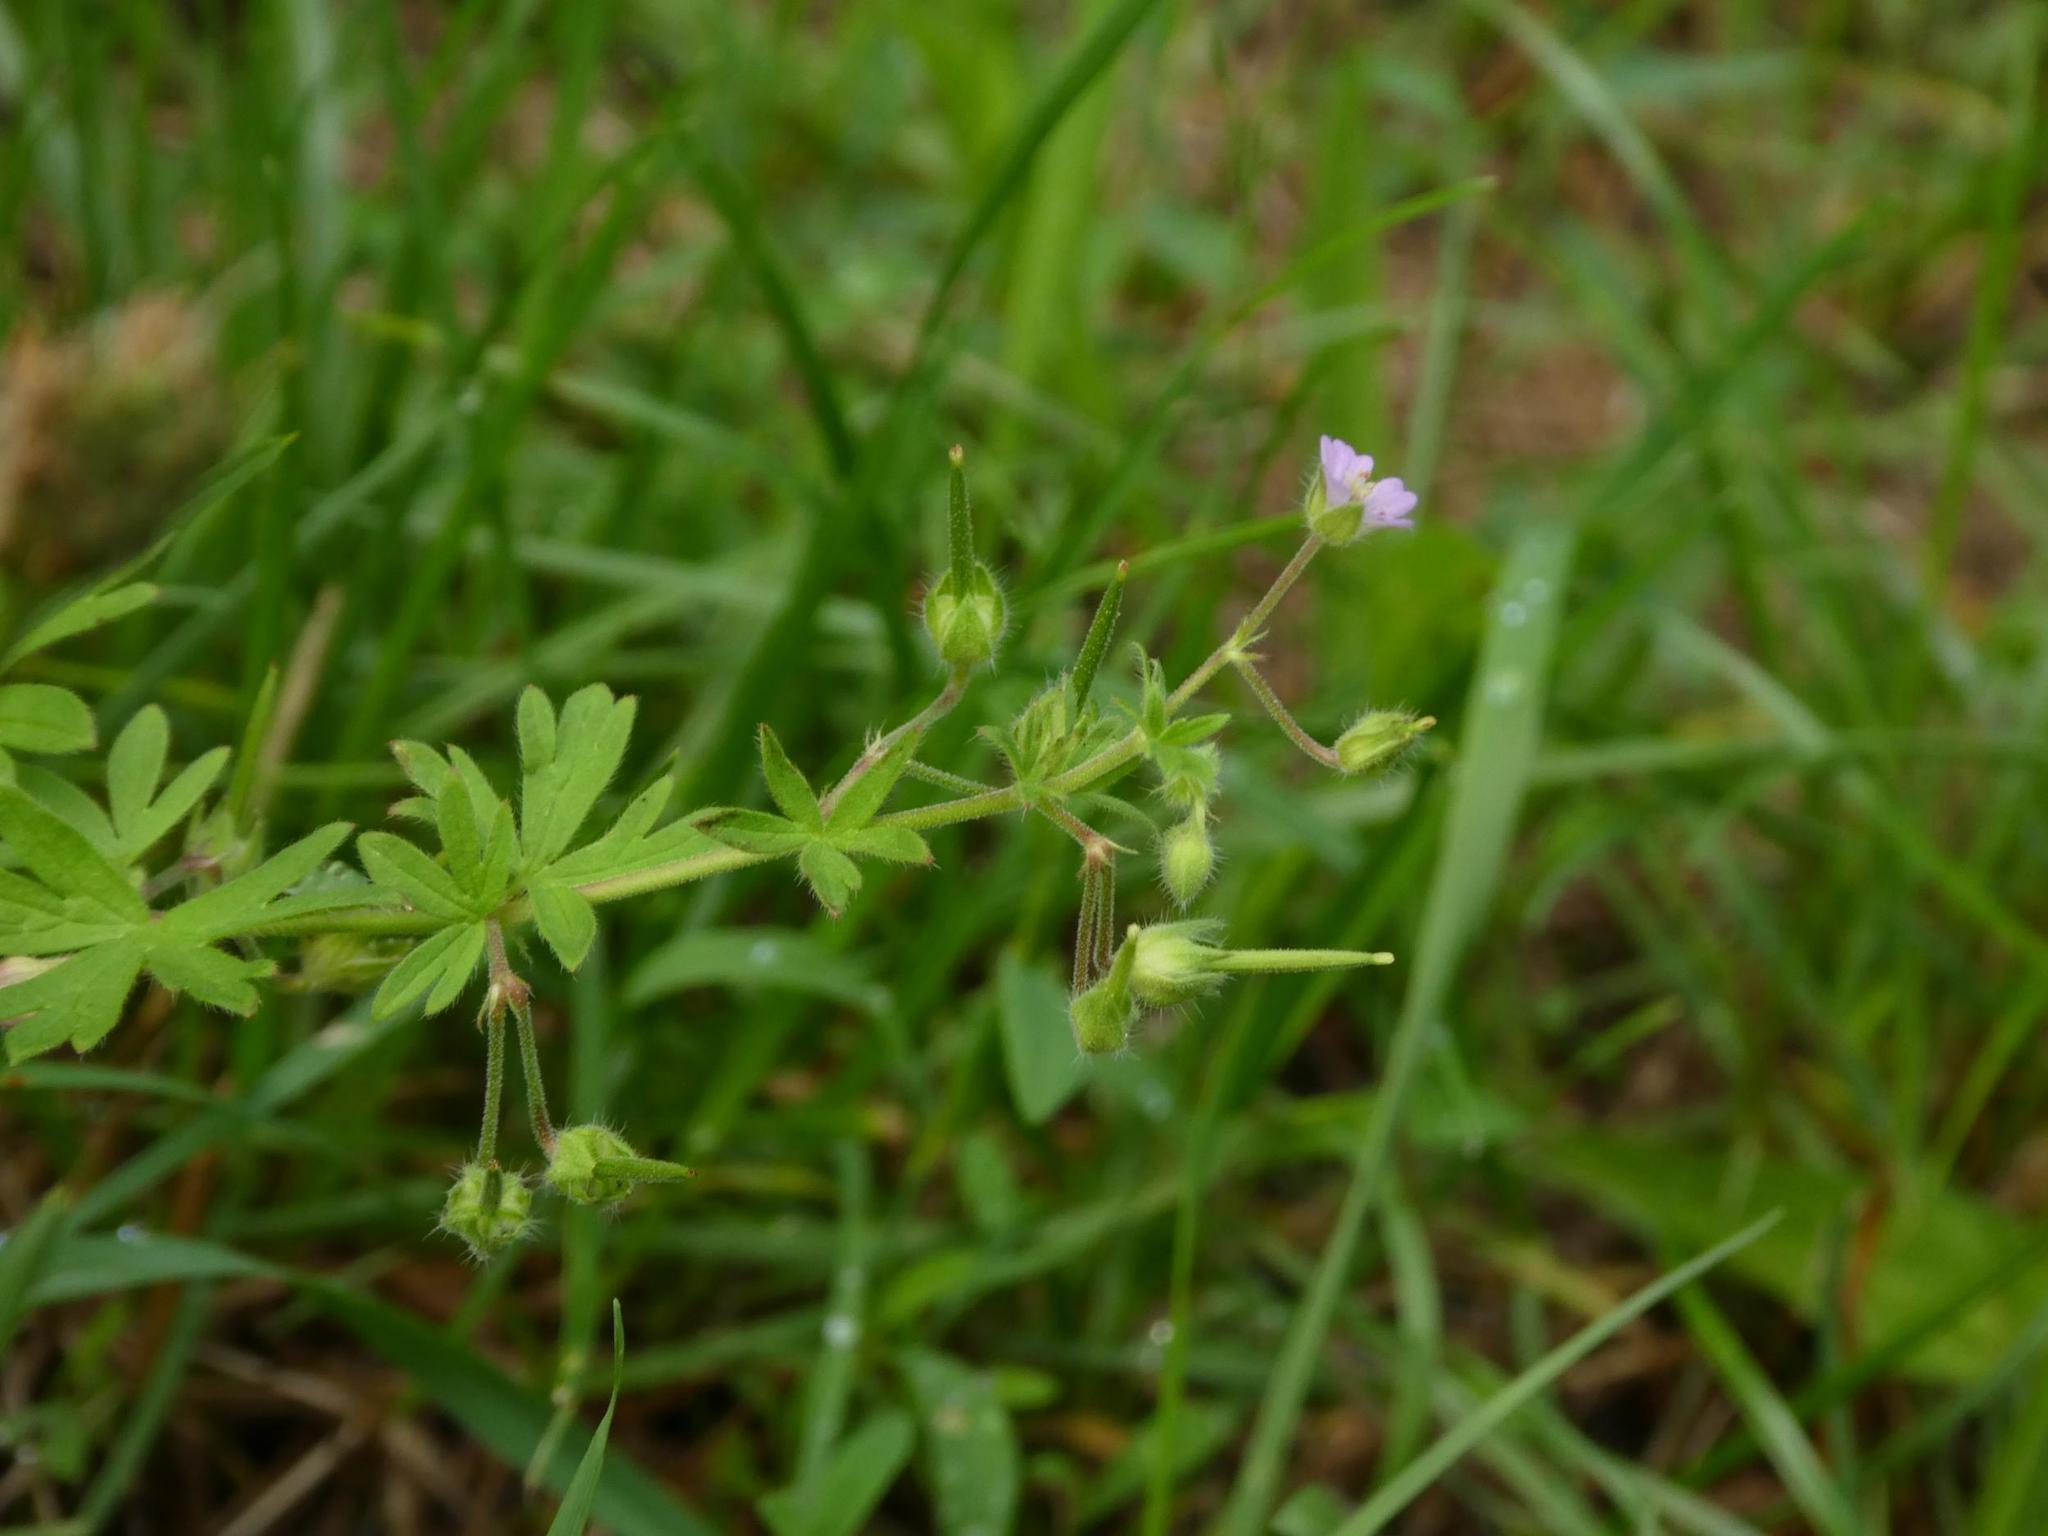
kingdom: Plantae
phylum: Tracheophyta
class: Magnoliopsida
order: Geraniales
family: Geraniaceae
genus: Geranium
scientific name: Geranium pusillum
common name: Small geranium
